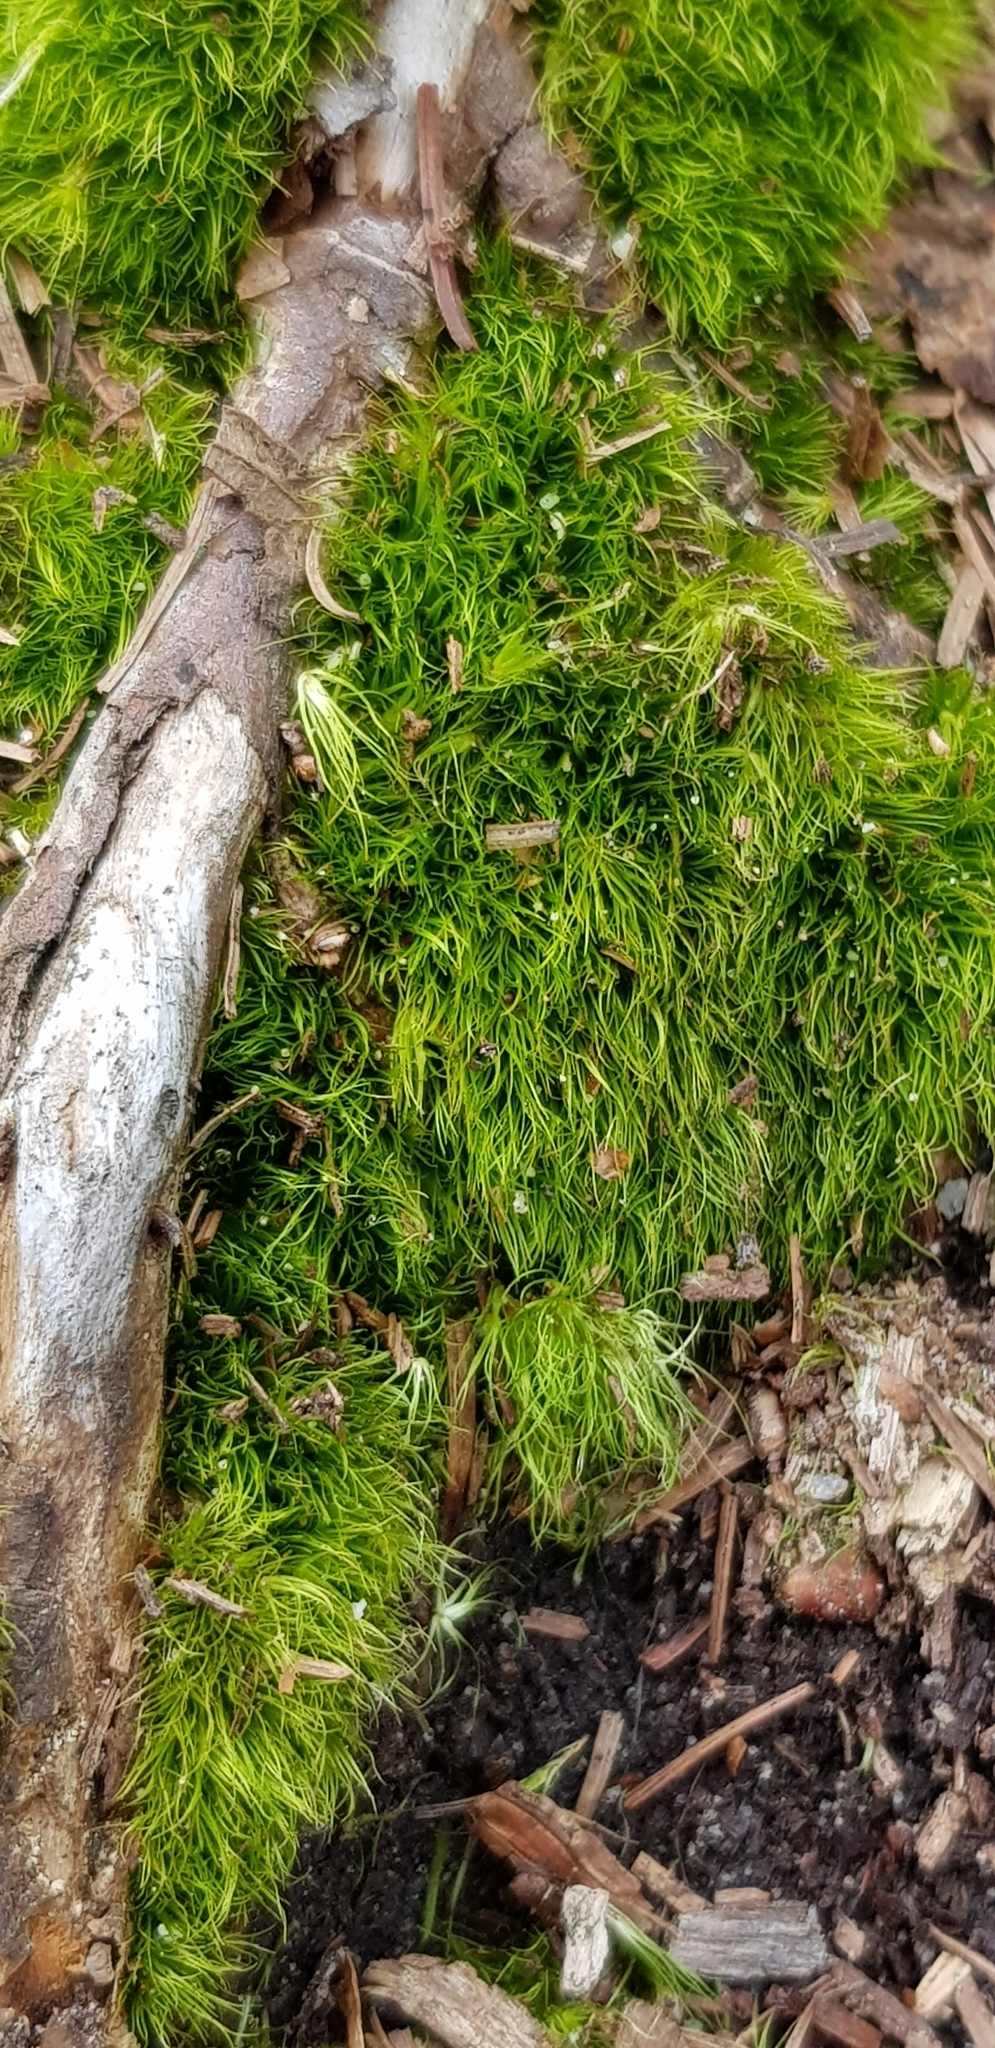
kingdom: Plantae
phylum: Bryophyta
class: Bryopsida
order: Dicranales
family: Dicranellaceae
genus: Dicranella
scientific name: Dicranella heteromalla
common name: Silky forklet moss
